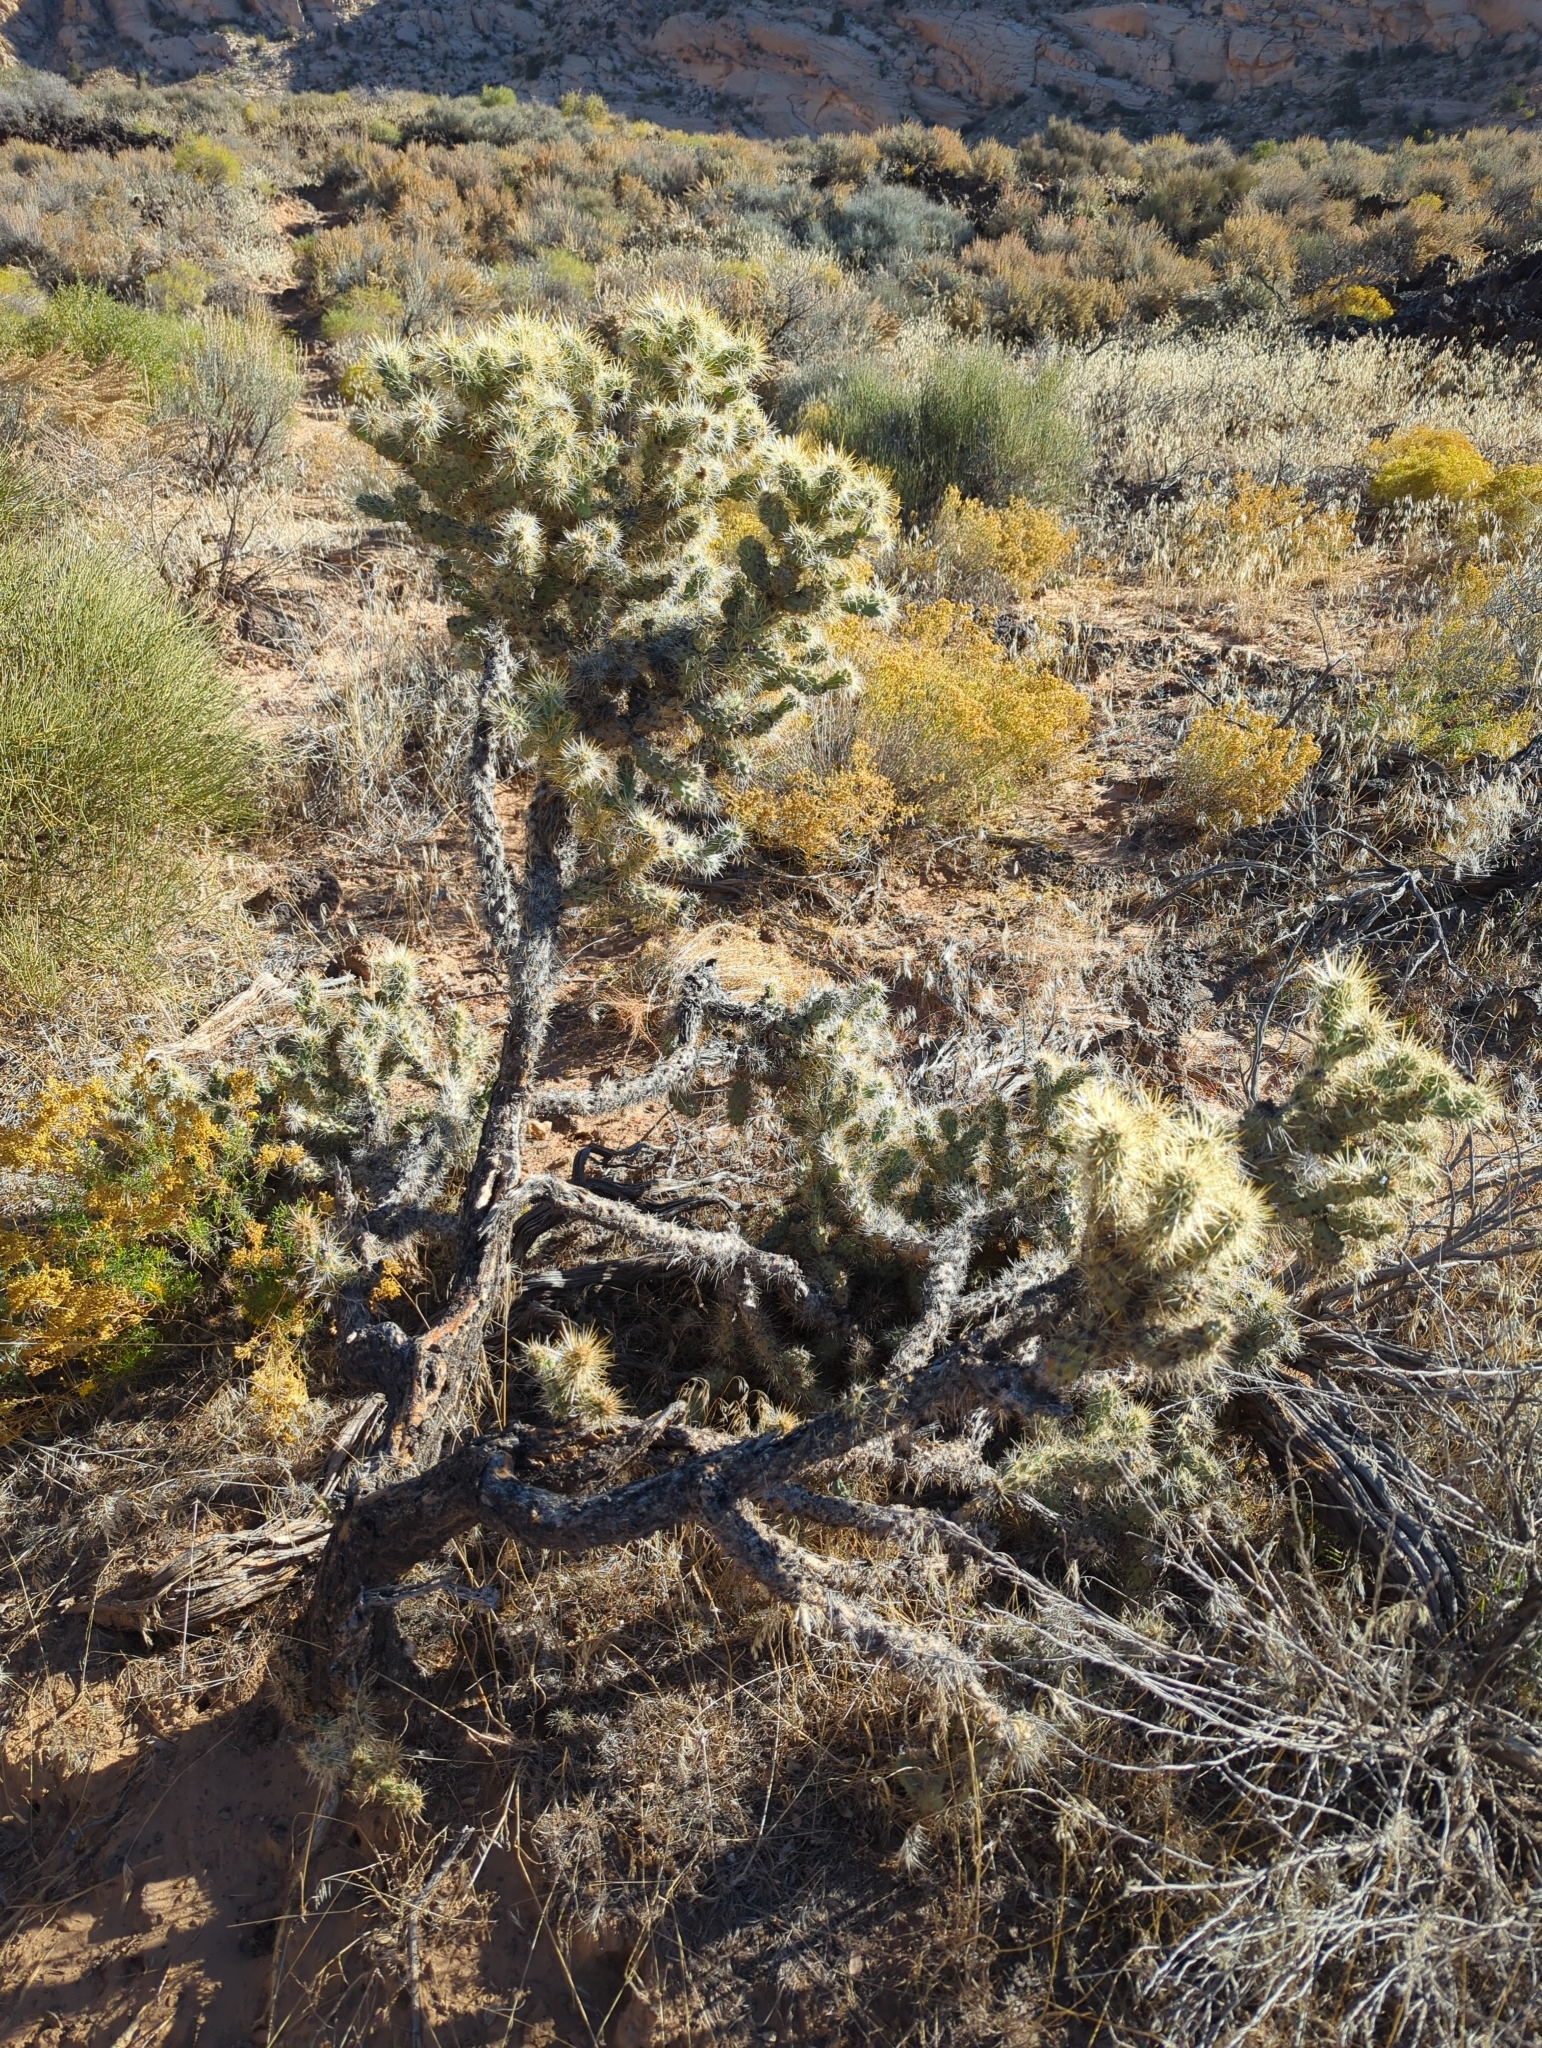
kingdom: Plantae
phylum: Tracheophyta
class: Magnoliopsida
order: Caryophyllales
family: Cactaceae
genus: Cylindropuntia
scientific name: Cylindropuntia echinocarpa
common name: Ground cholla
